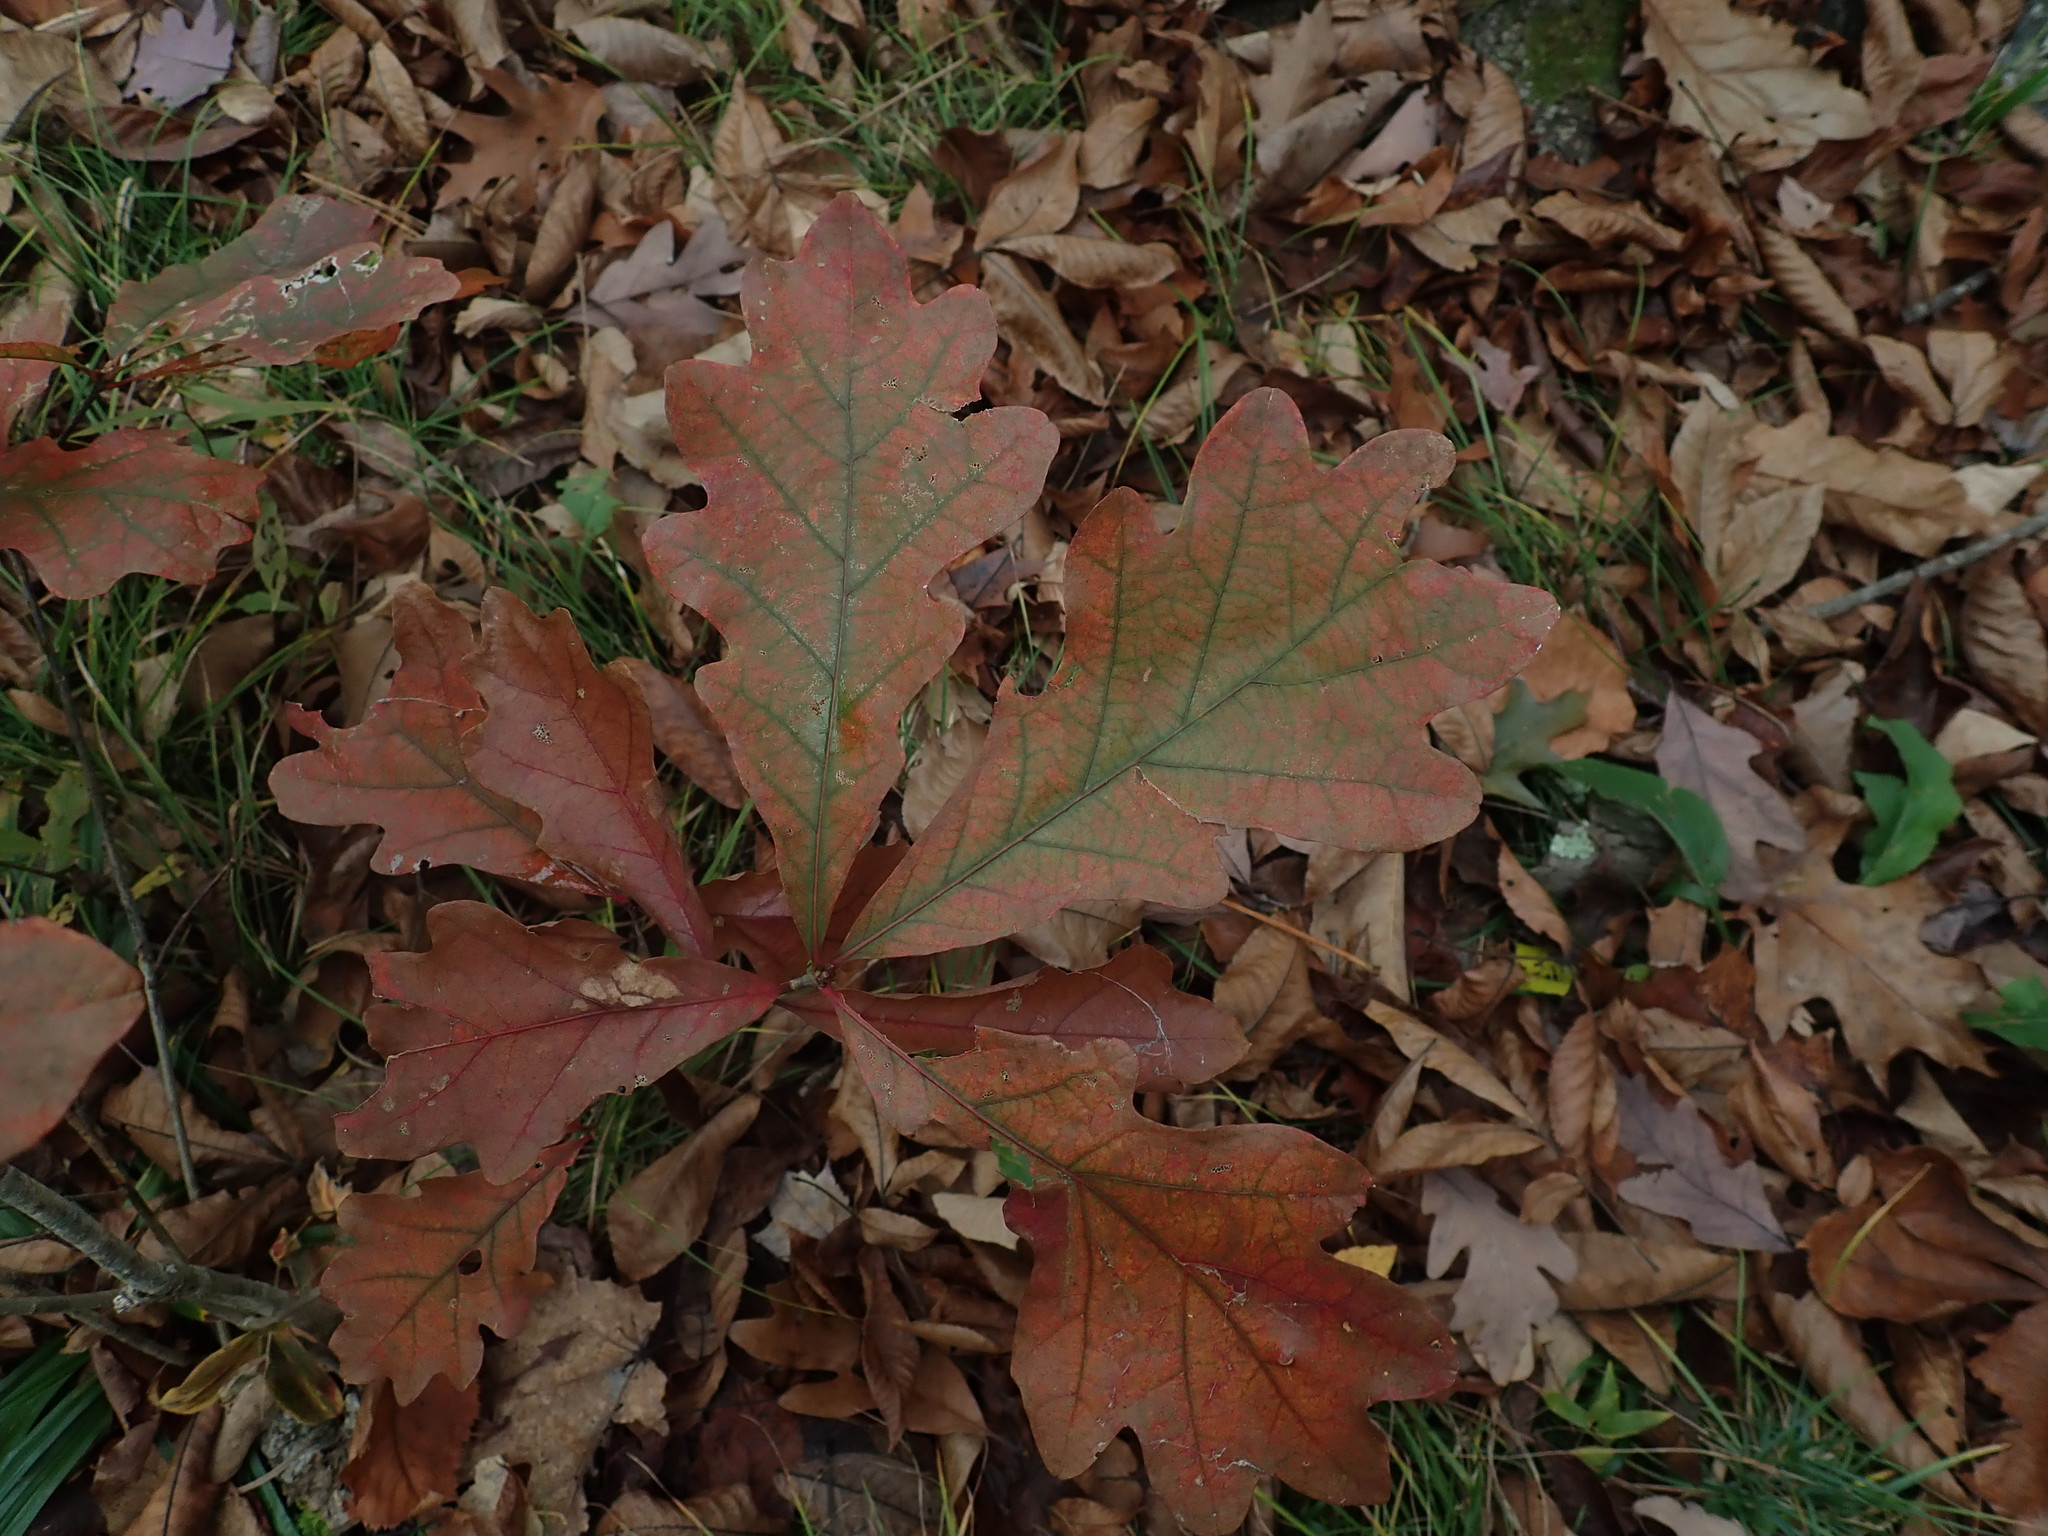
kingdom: Plantae
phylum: Tracheophyta
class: Magnoliopsida
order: Fagales
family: Fagaceae
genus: Quercus
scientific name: Quercus alba
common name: White oak
